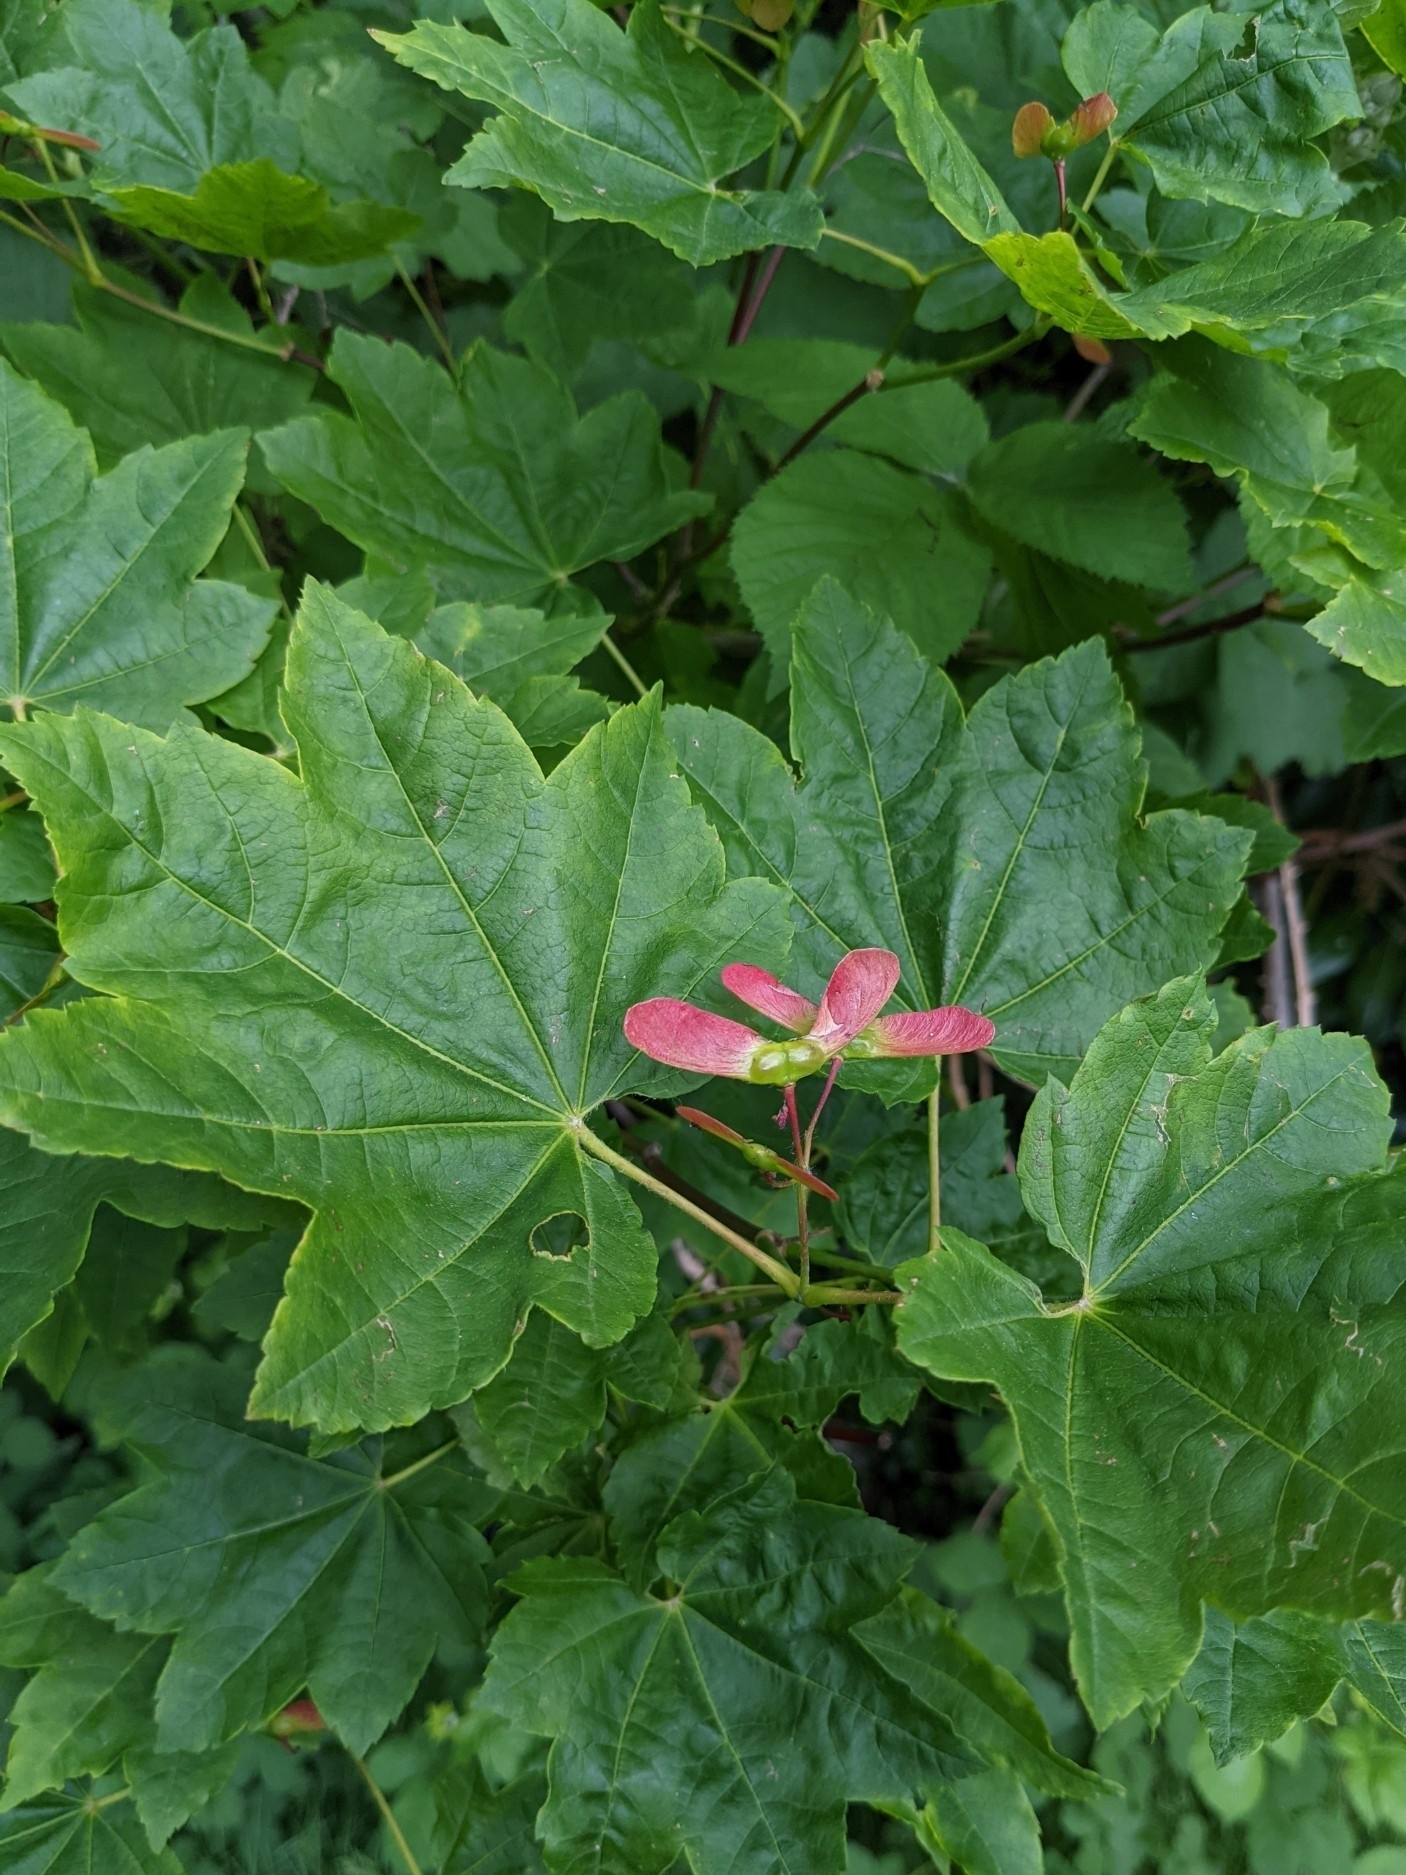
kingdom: Plantae
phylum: Tracheophyta
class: Magnoliopsida
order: Sapindales
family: Sapindaceae
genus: Acer
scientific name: Acer circinatum
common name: Vine maple
